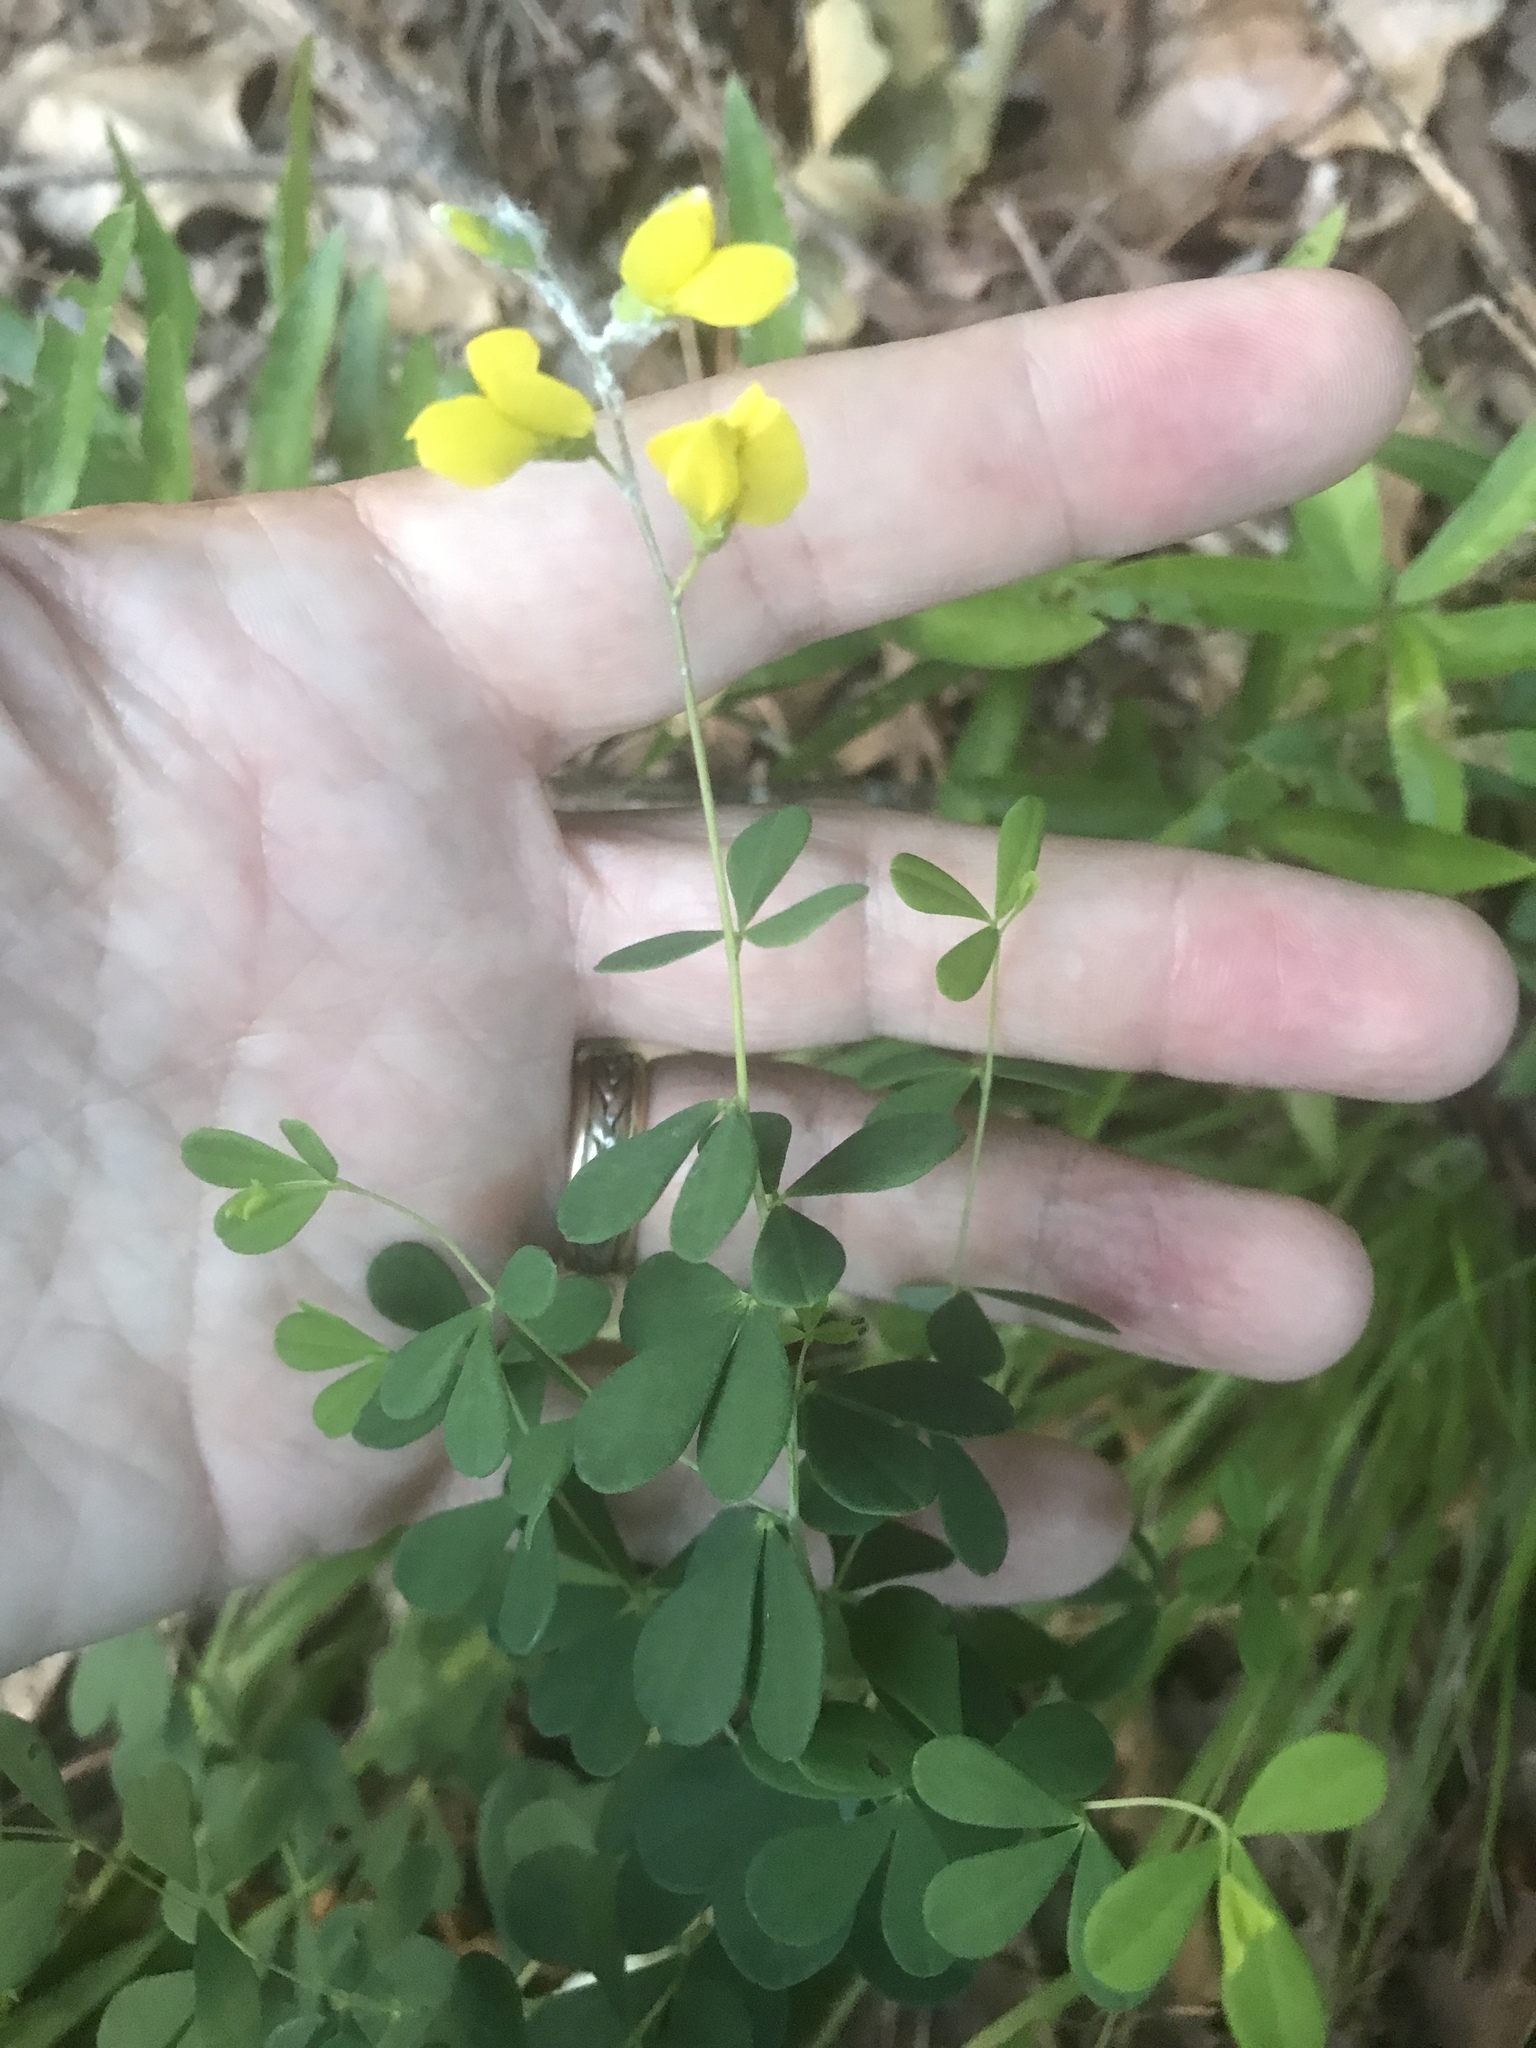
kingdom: Plantae
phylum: Tracheophyta
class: Magnoliopsida
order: Fabales
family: Fabaceae
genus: Baptisia
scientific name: Baptisia tinctoria
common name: Wild indigo
